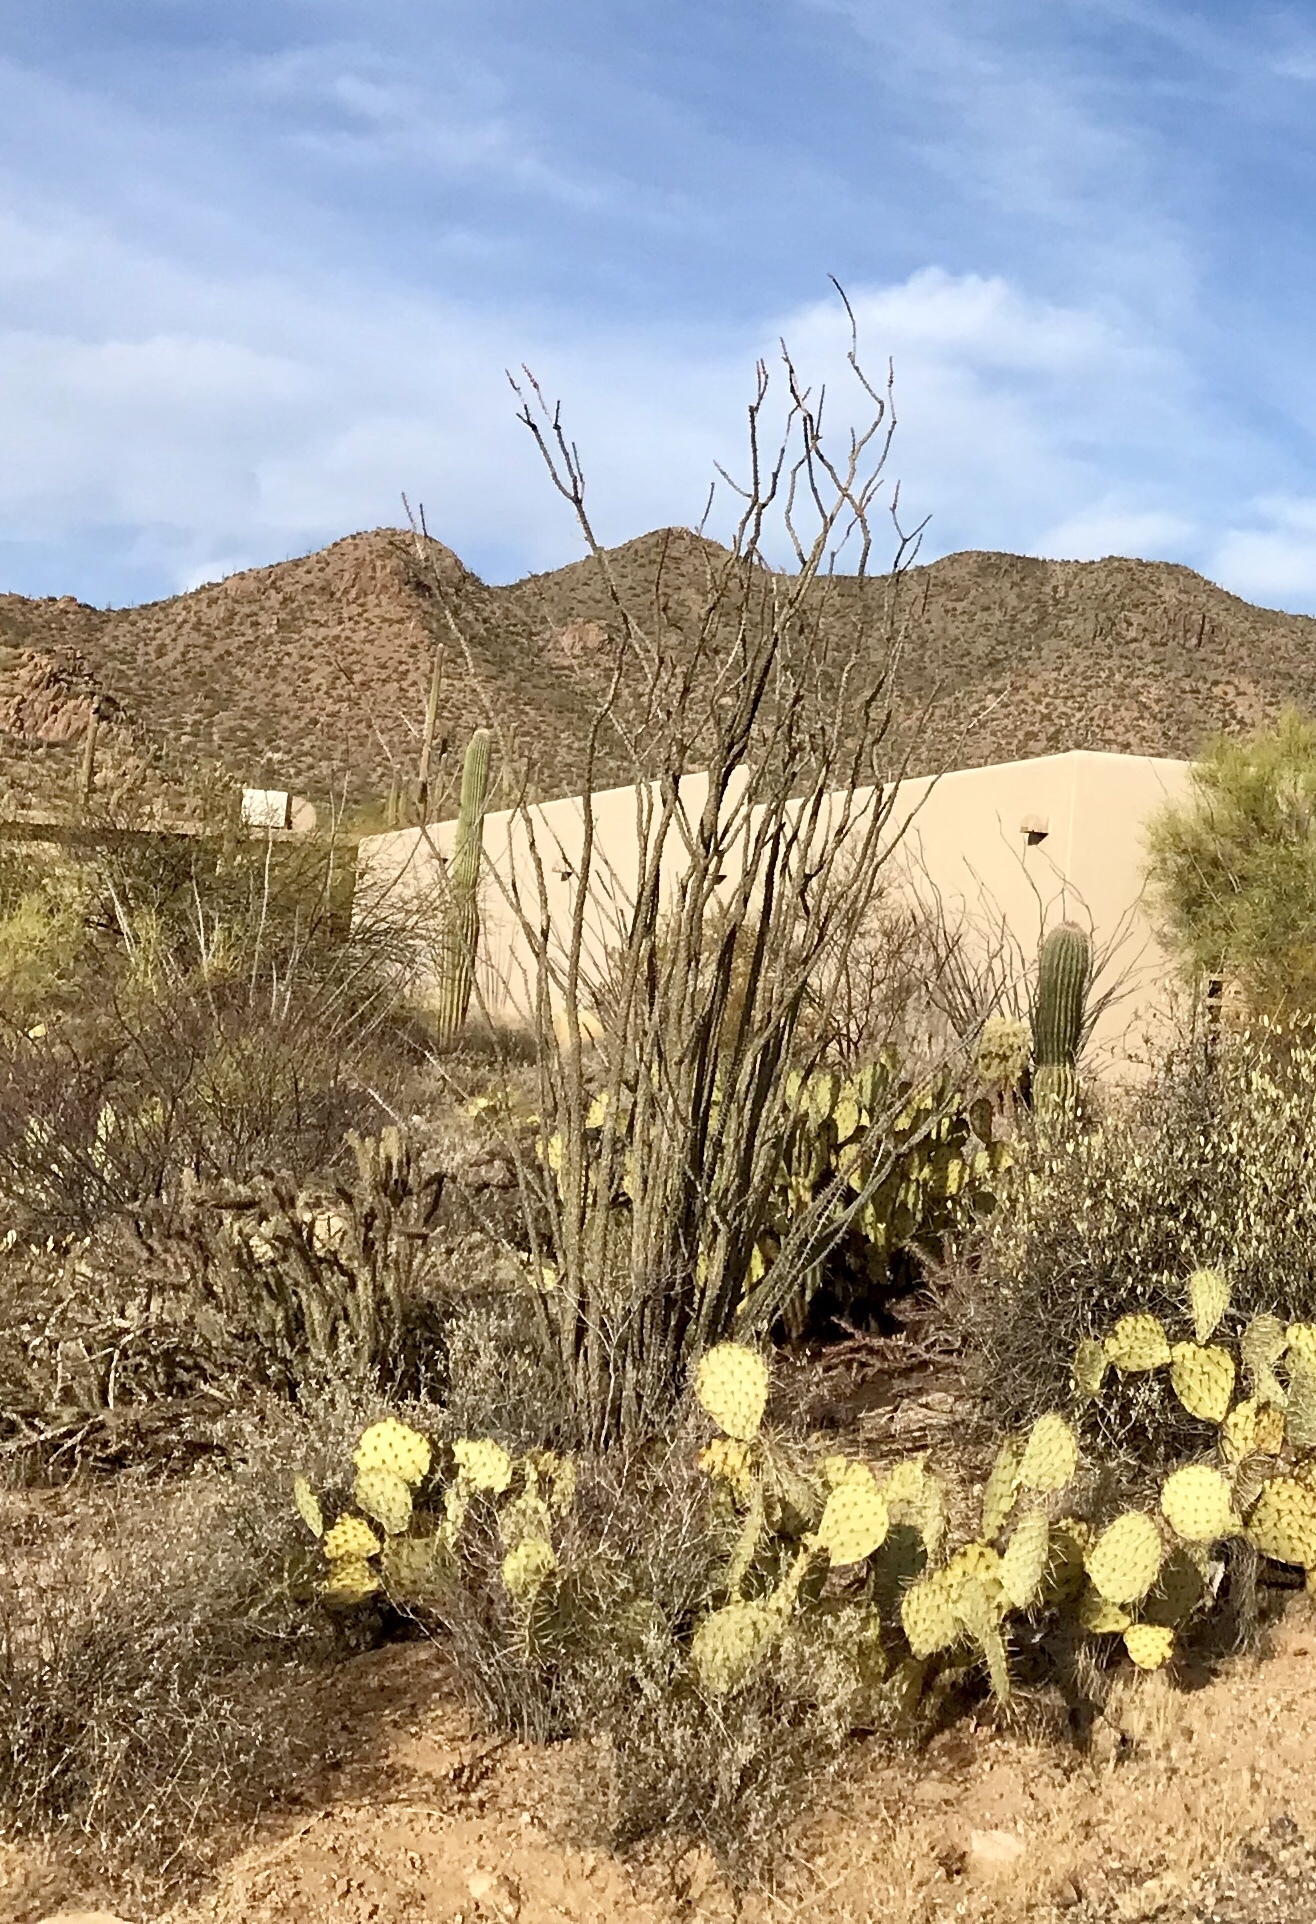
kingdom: Plantae
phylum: Tracheophyta
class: Magnoliopsida
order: Ericales
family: Fouquieriaceae
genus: Fouquieria
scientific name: Fouquieria splendens
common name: Vine-cactus
